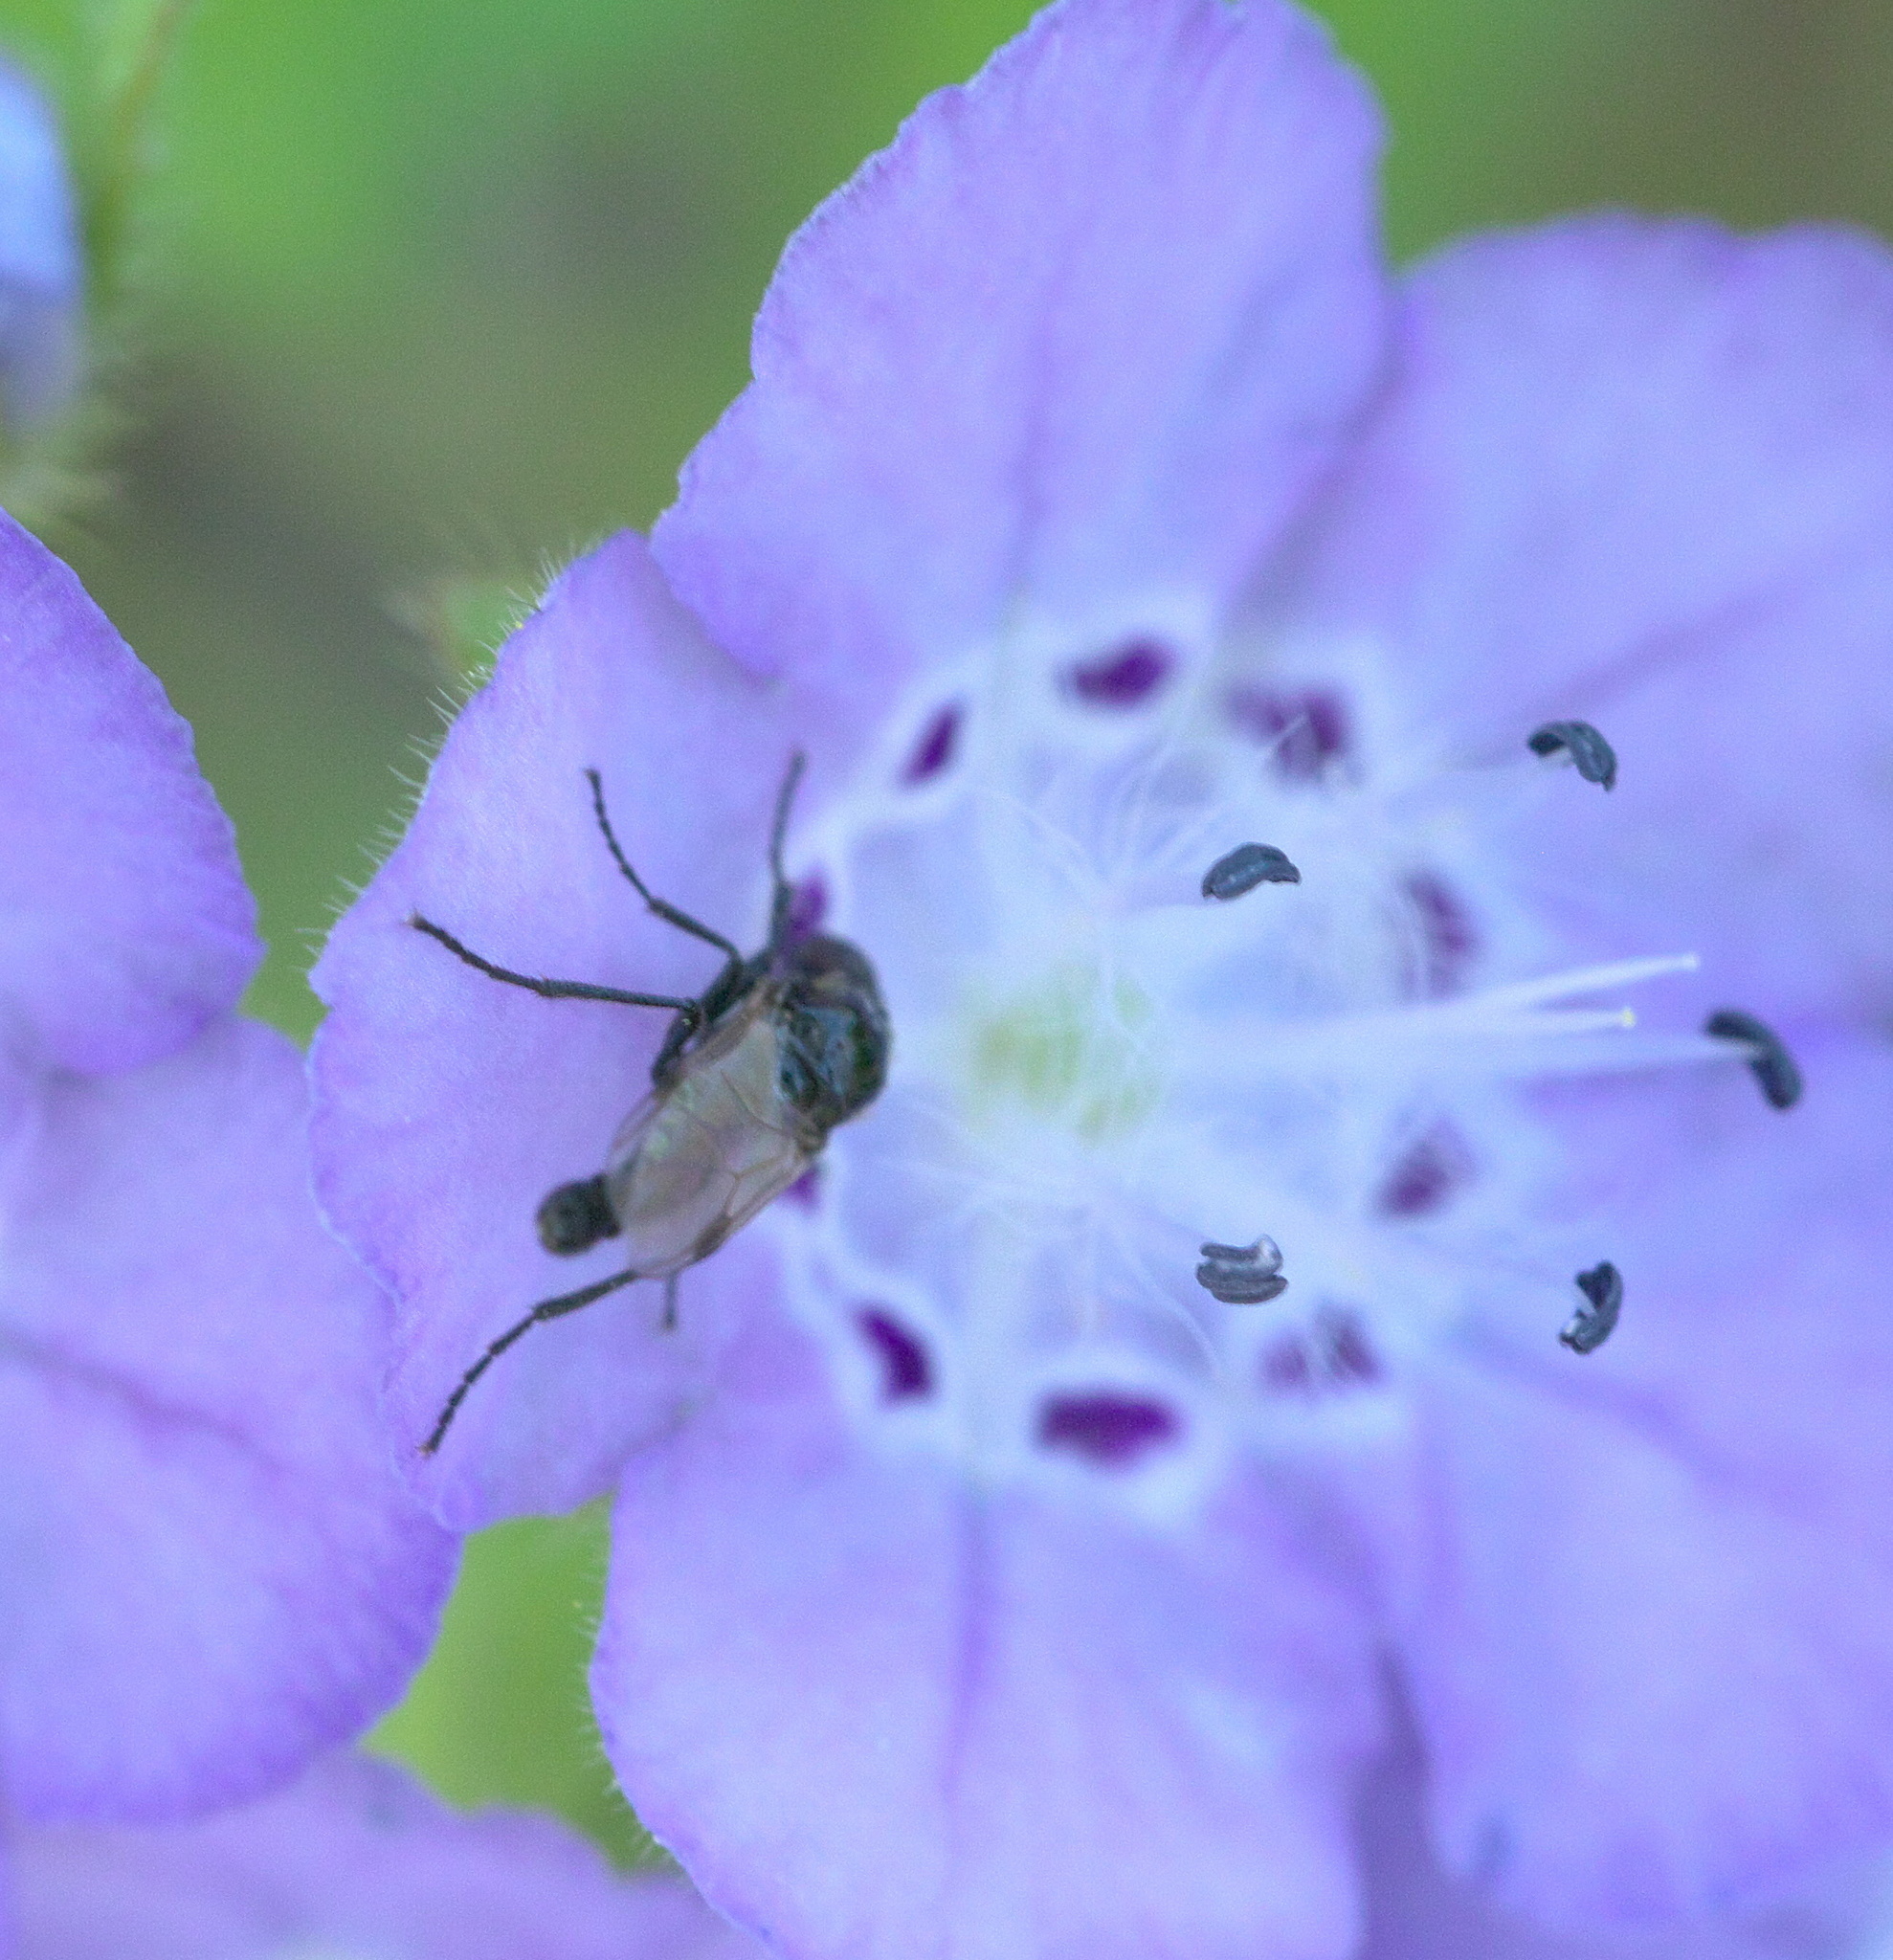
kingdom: Animalia
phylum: Arthropoda
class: Insecta
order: Diptera
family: Bibionidae
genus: Bibio
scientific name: Bibio
